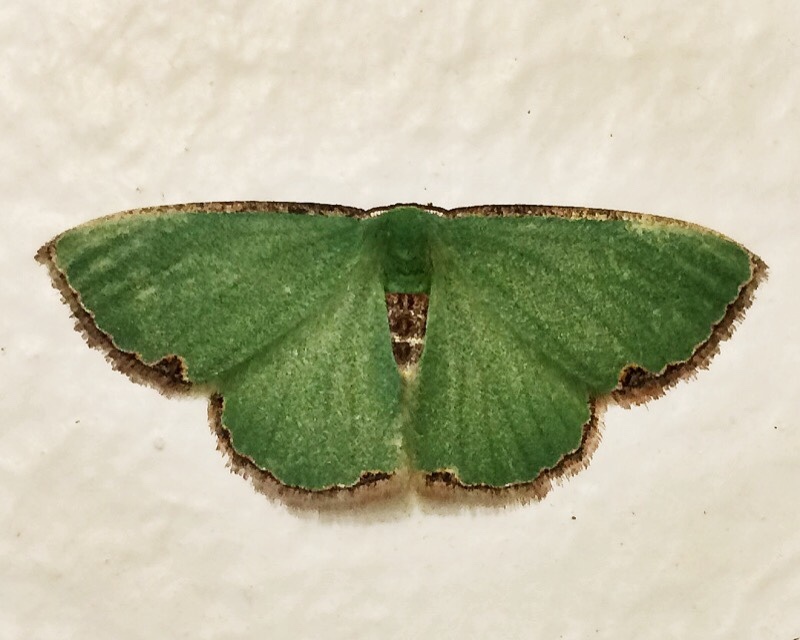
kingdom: Animalia
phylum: Arthropoda
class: Insecta
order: Lepidoptera
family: Geometridae
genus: Heterorachis
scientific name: Heterorachis devocata
